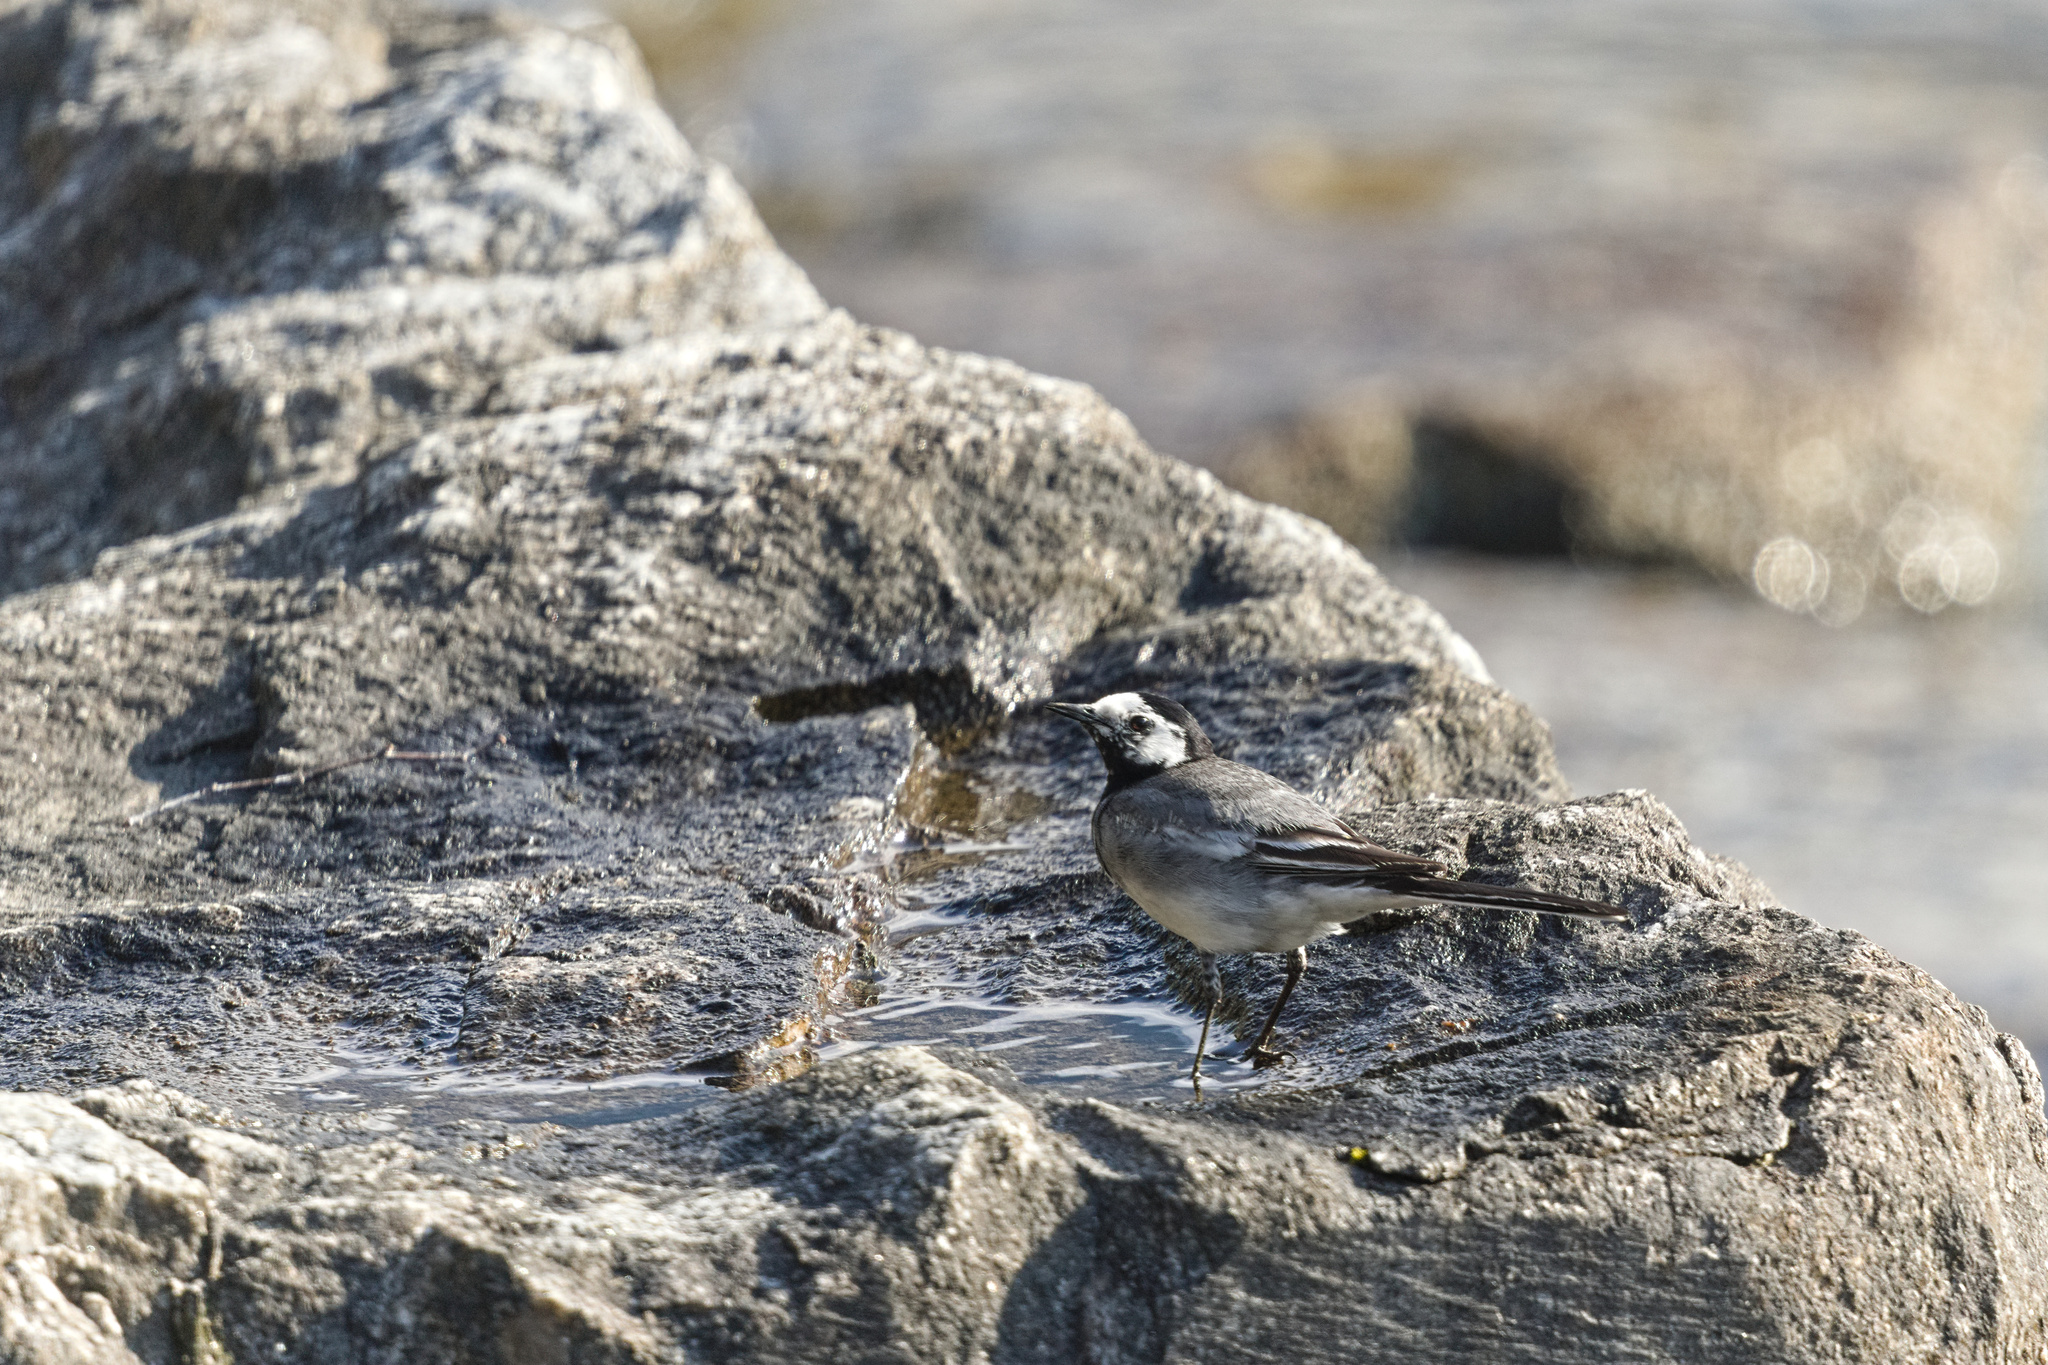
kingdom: Animalia
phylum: Chordata
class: Aves
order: Passeriformes
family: Motacillidae
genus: Motacilla
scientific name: Motacilla alba
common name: White wagtail
